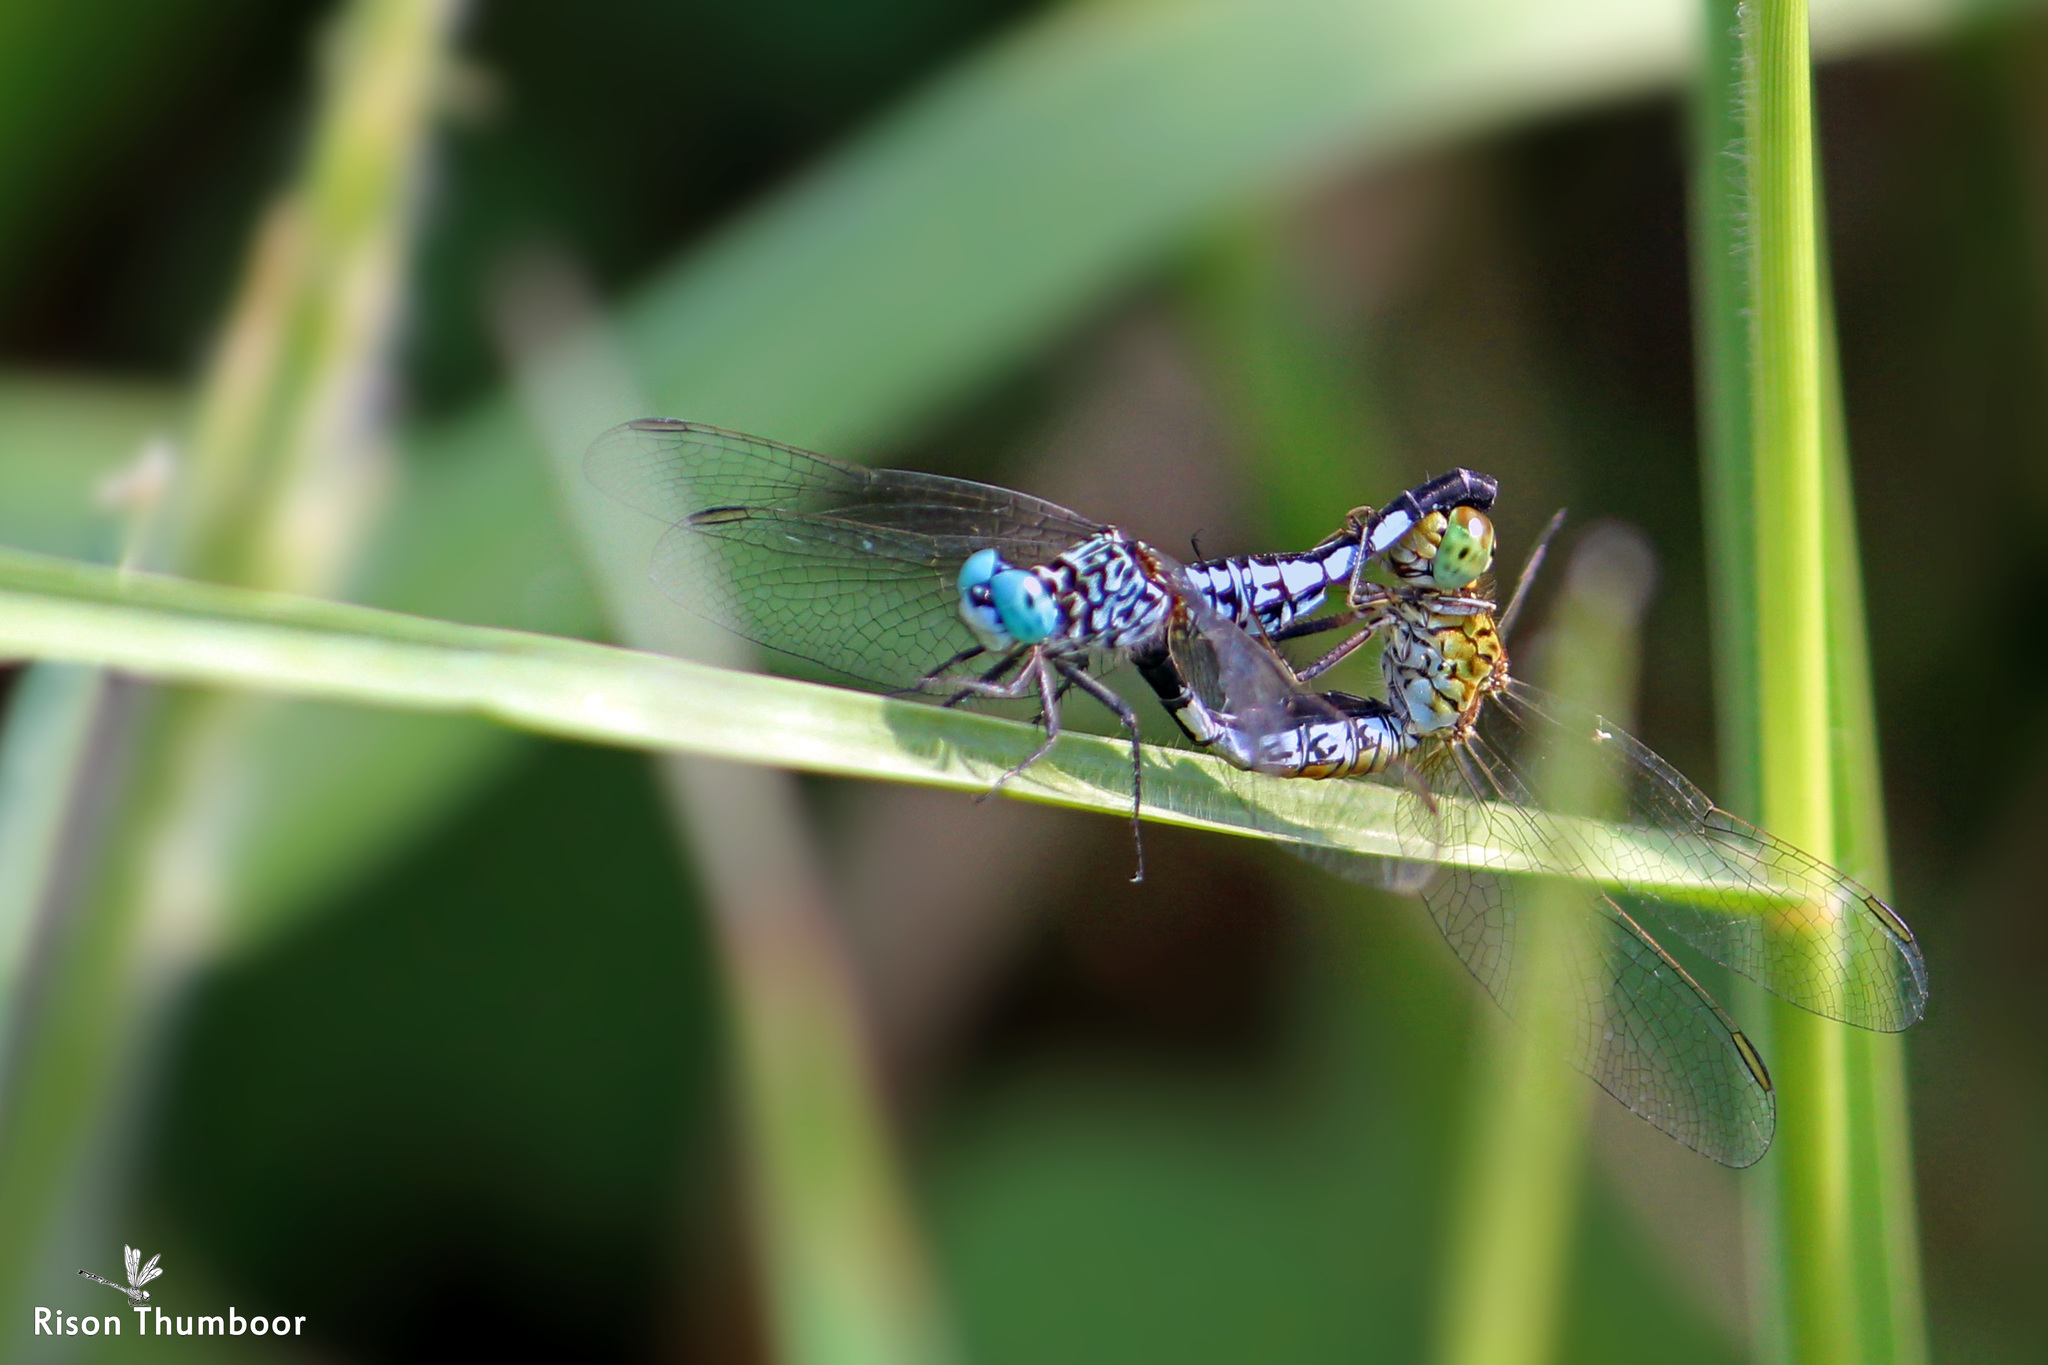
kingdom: Animalia
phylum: Arthropoda
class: Insecta
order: Odonata
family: Libellulidae
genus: Acisoma
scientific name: Acisoma panorpoides
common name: Asian pintail
